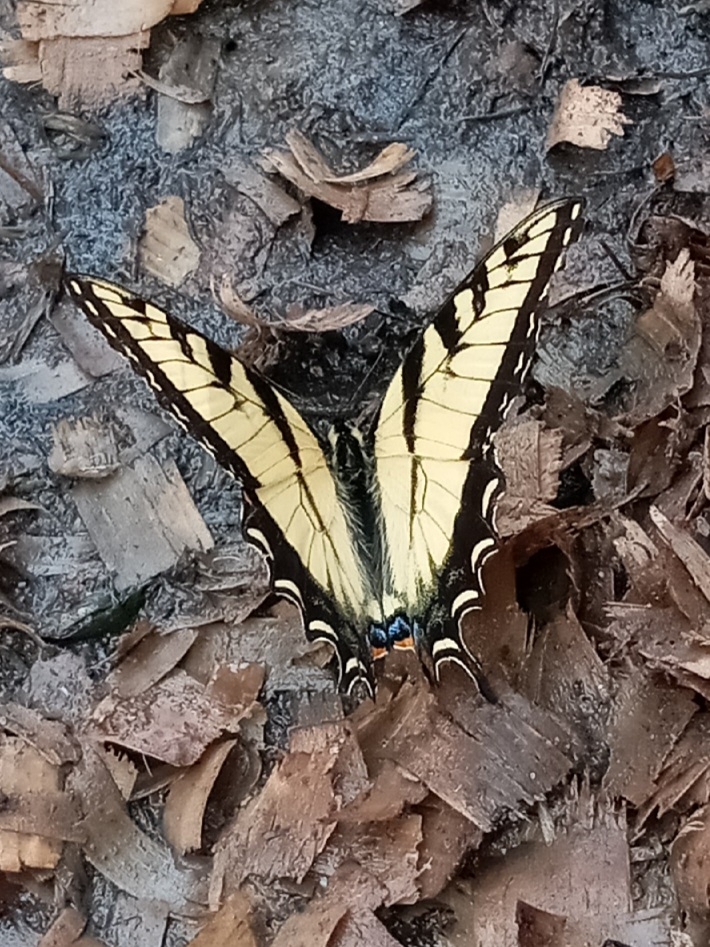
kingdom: Animalia
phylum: Arthropoda
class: Insecta
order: Lepidoptera
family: Papilionidae
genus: Papilio
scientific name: Papilio glaucus
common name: Tiger swallowtail
